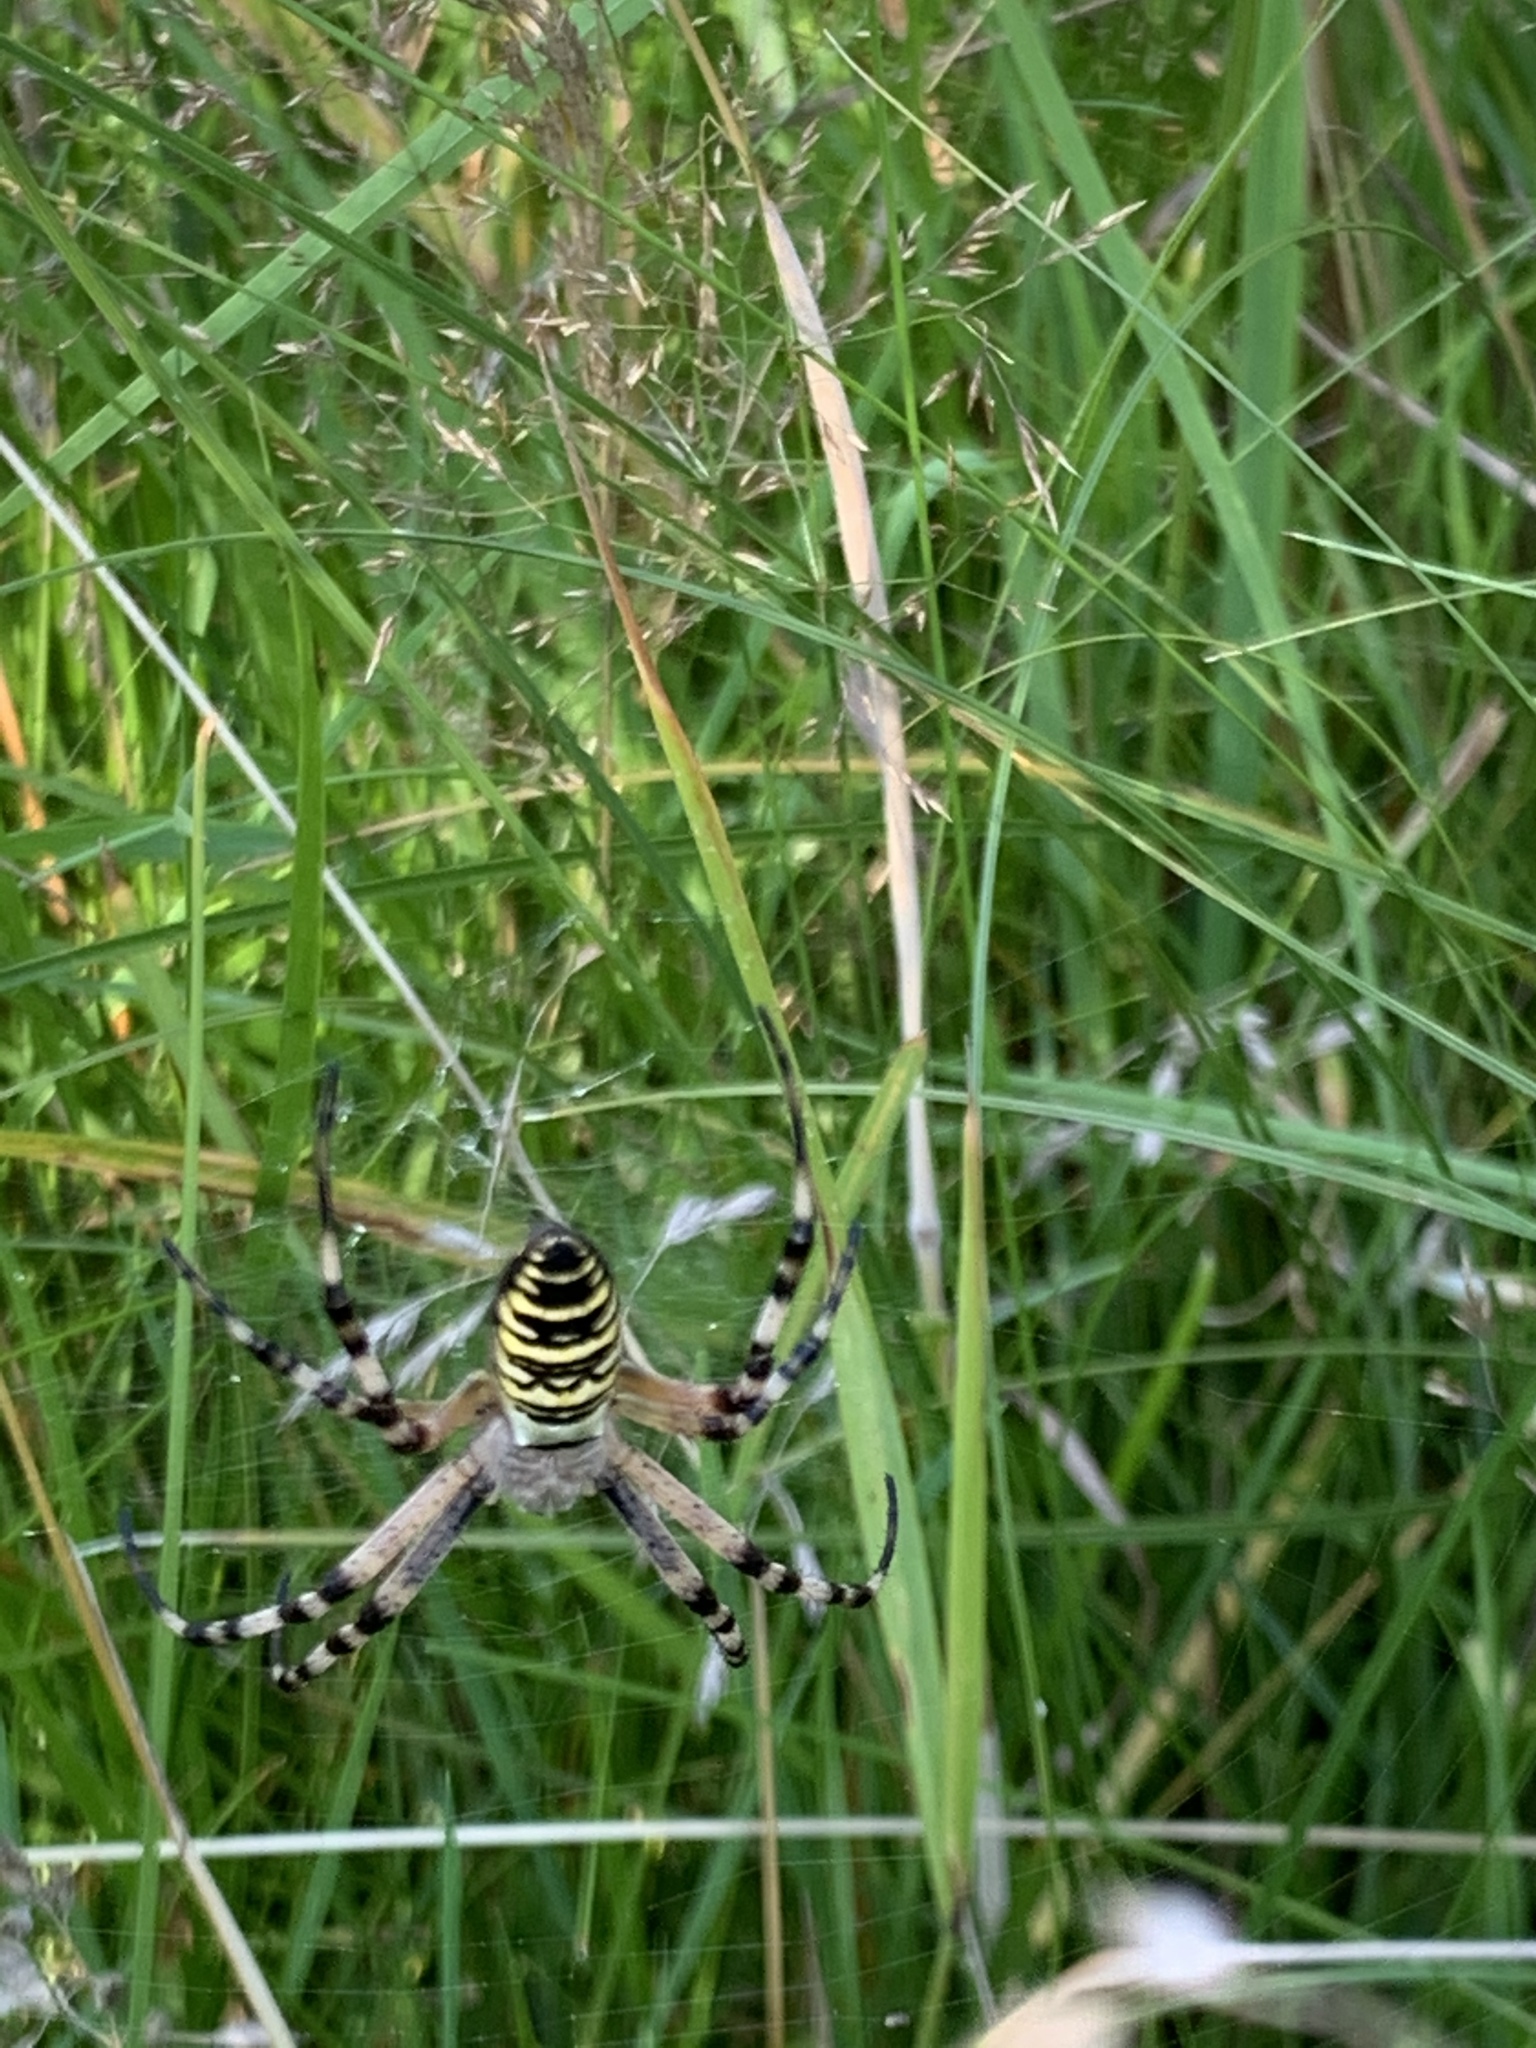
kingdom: Animalia
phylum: Arthropoda
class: Arachnida
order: Araneae
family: Araneidae
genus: Argiope
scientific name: Argiope bruennichi
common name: Wasp spider
